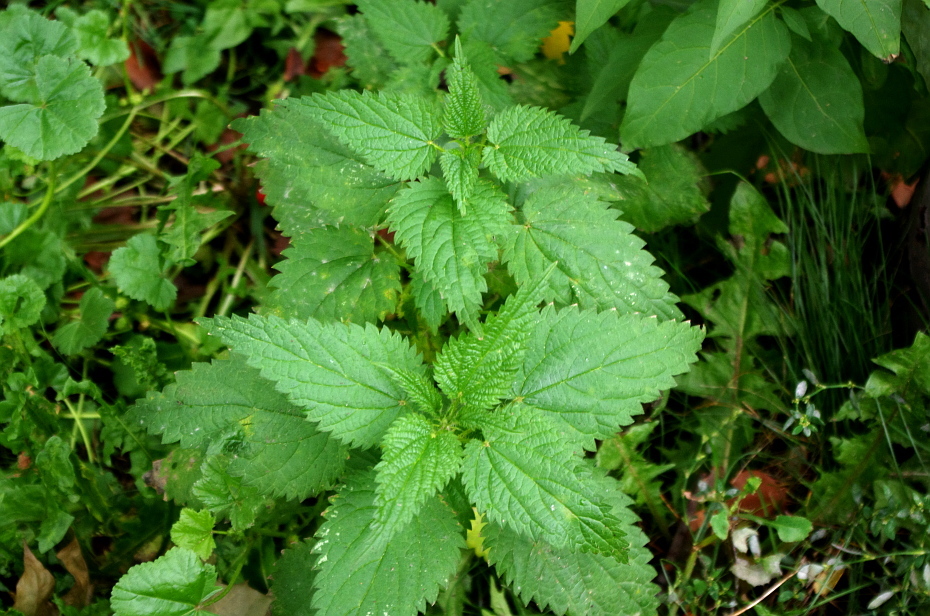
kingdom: Plantae
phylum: Tracheophyta
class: Magnoliopsida
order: Rosales
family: Urticaceae
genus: Urtica
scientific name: Urtica dioica
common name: Common nettle
